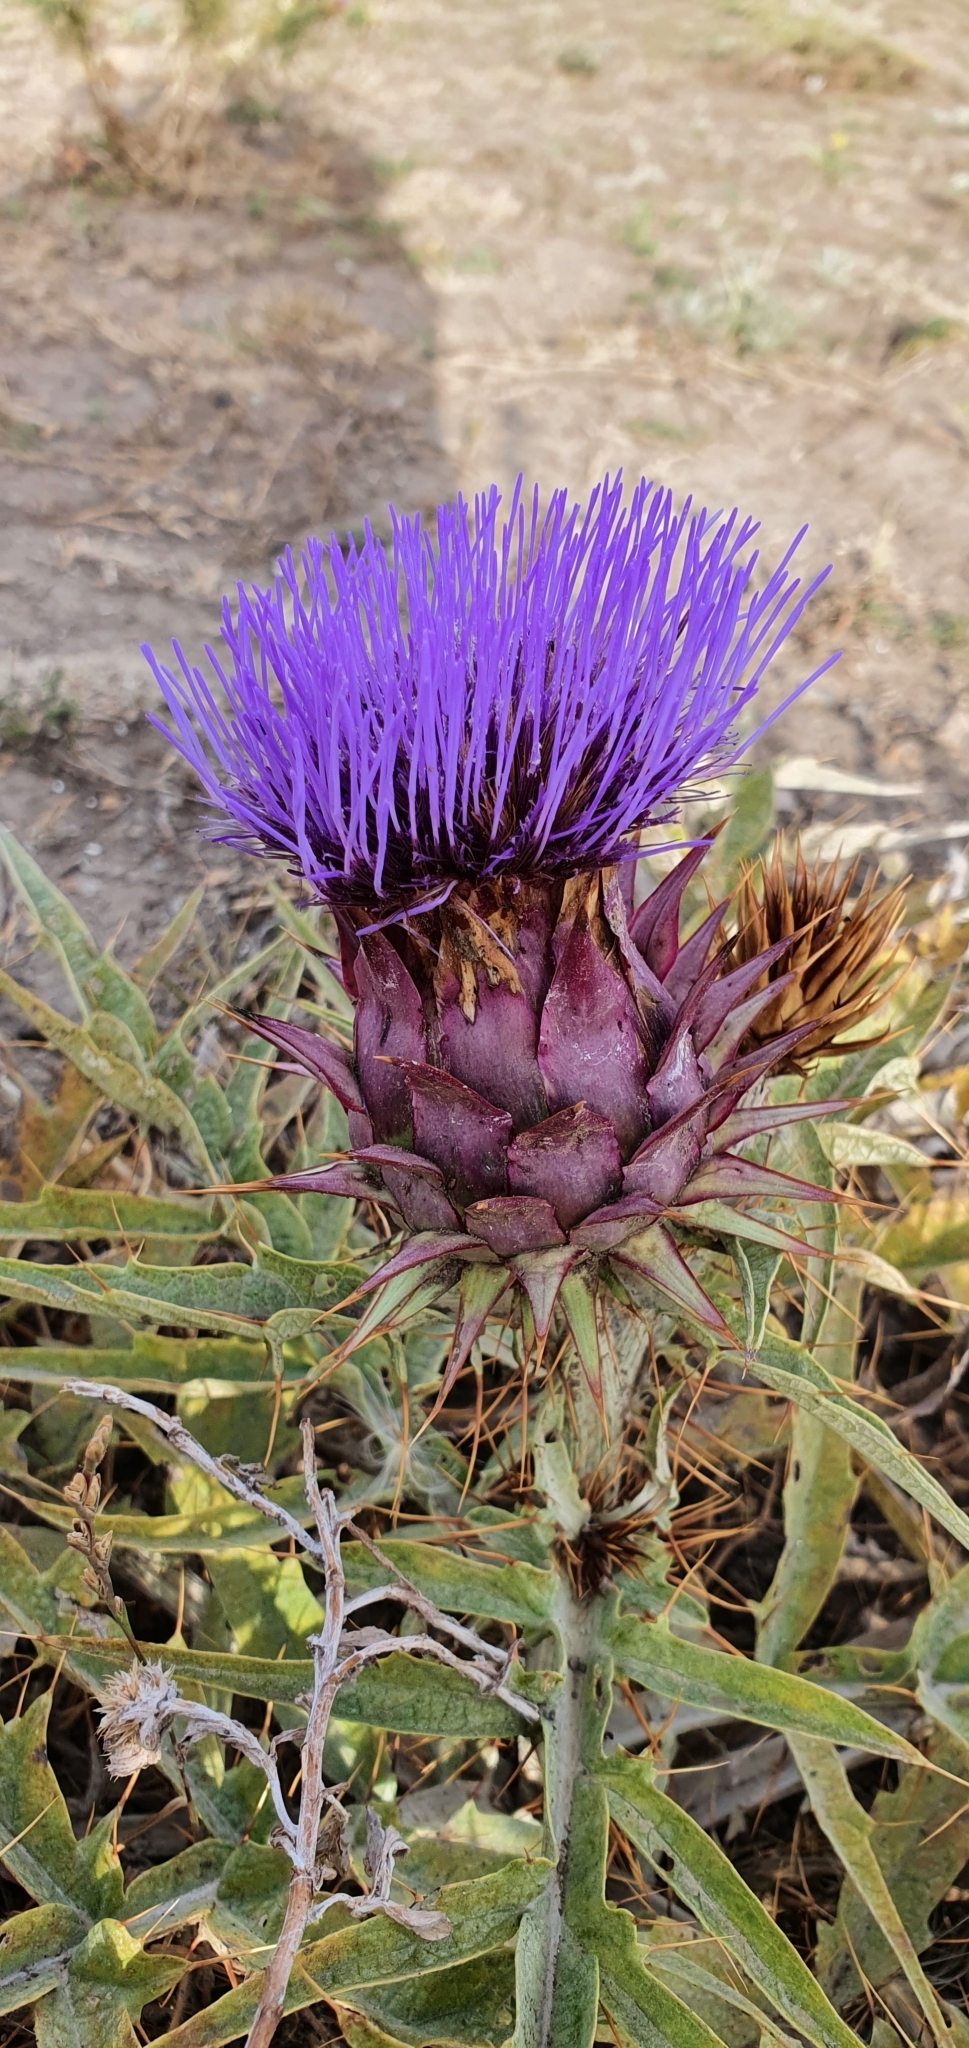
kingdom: Plantae
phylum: Tracheophyta
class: Magnoliopsida
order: Asterales
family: Asteraceae
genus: Cynara
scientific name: Cynara cardunculus
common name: Globe artichoke
